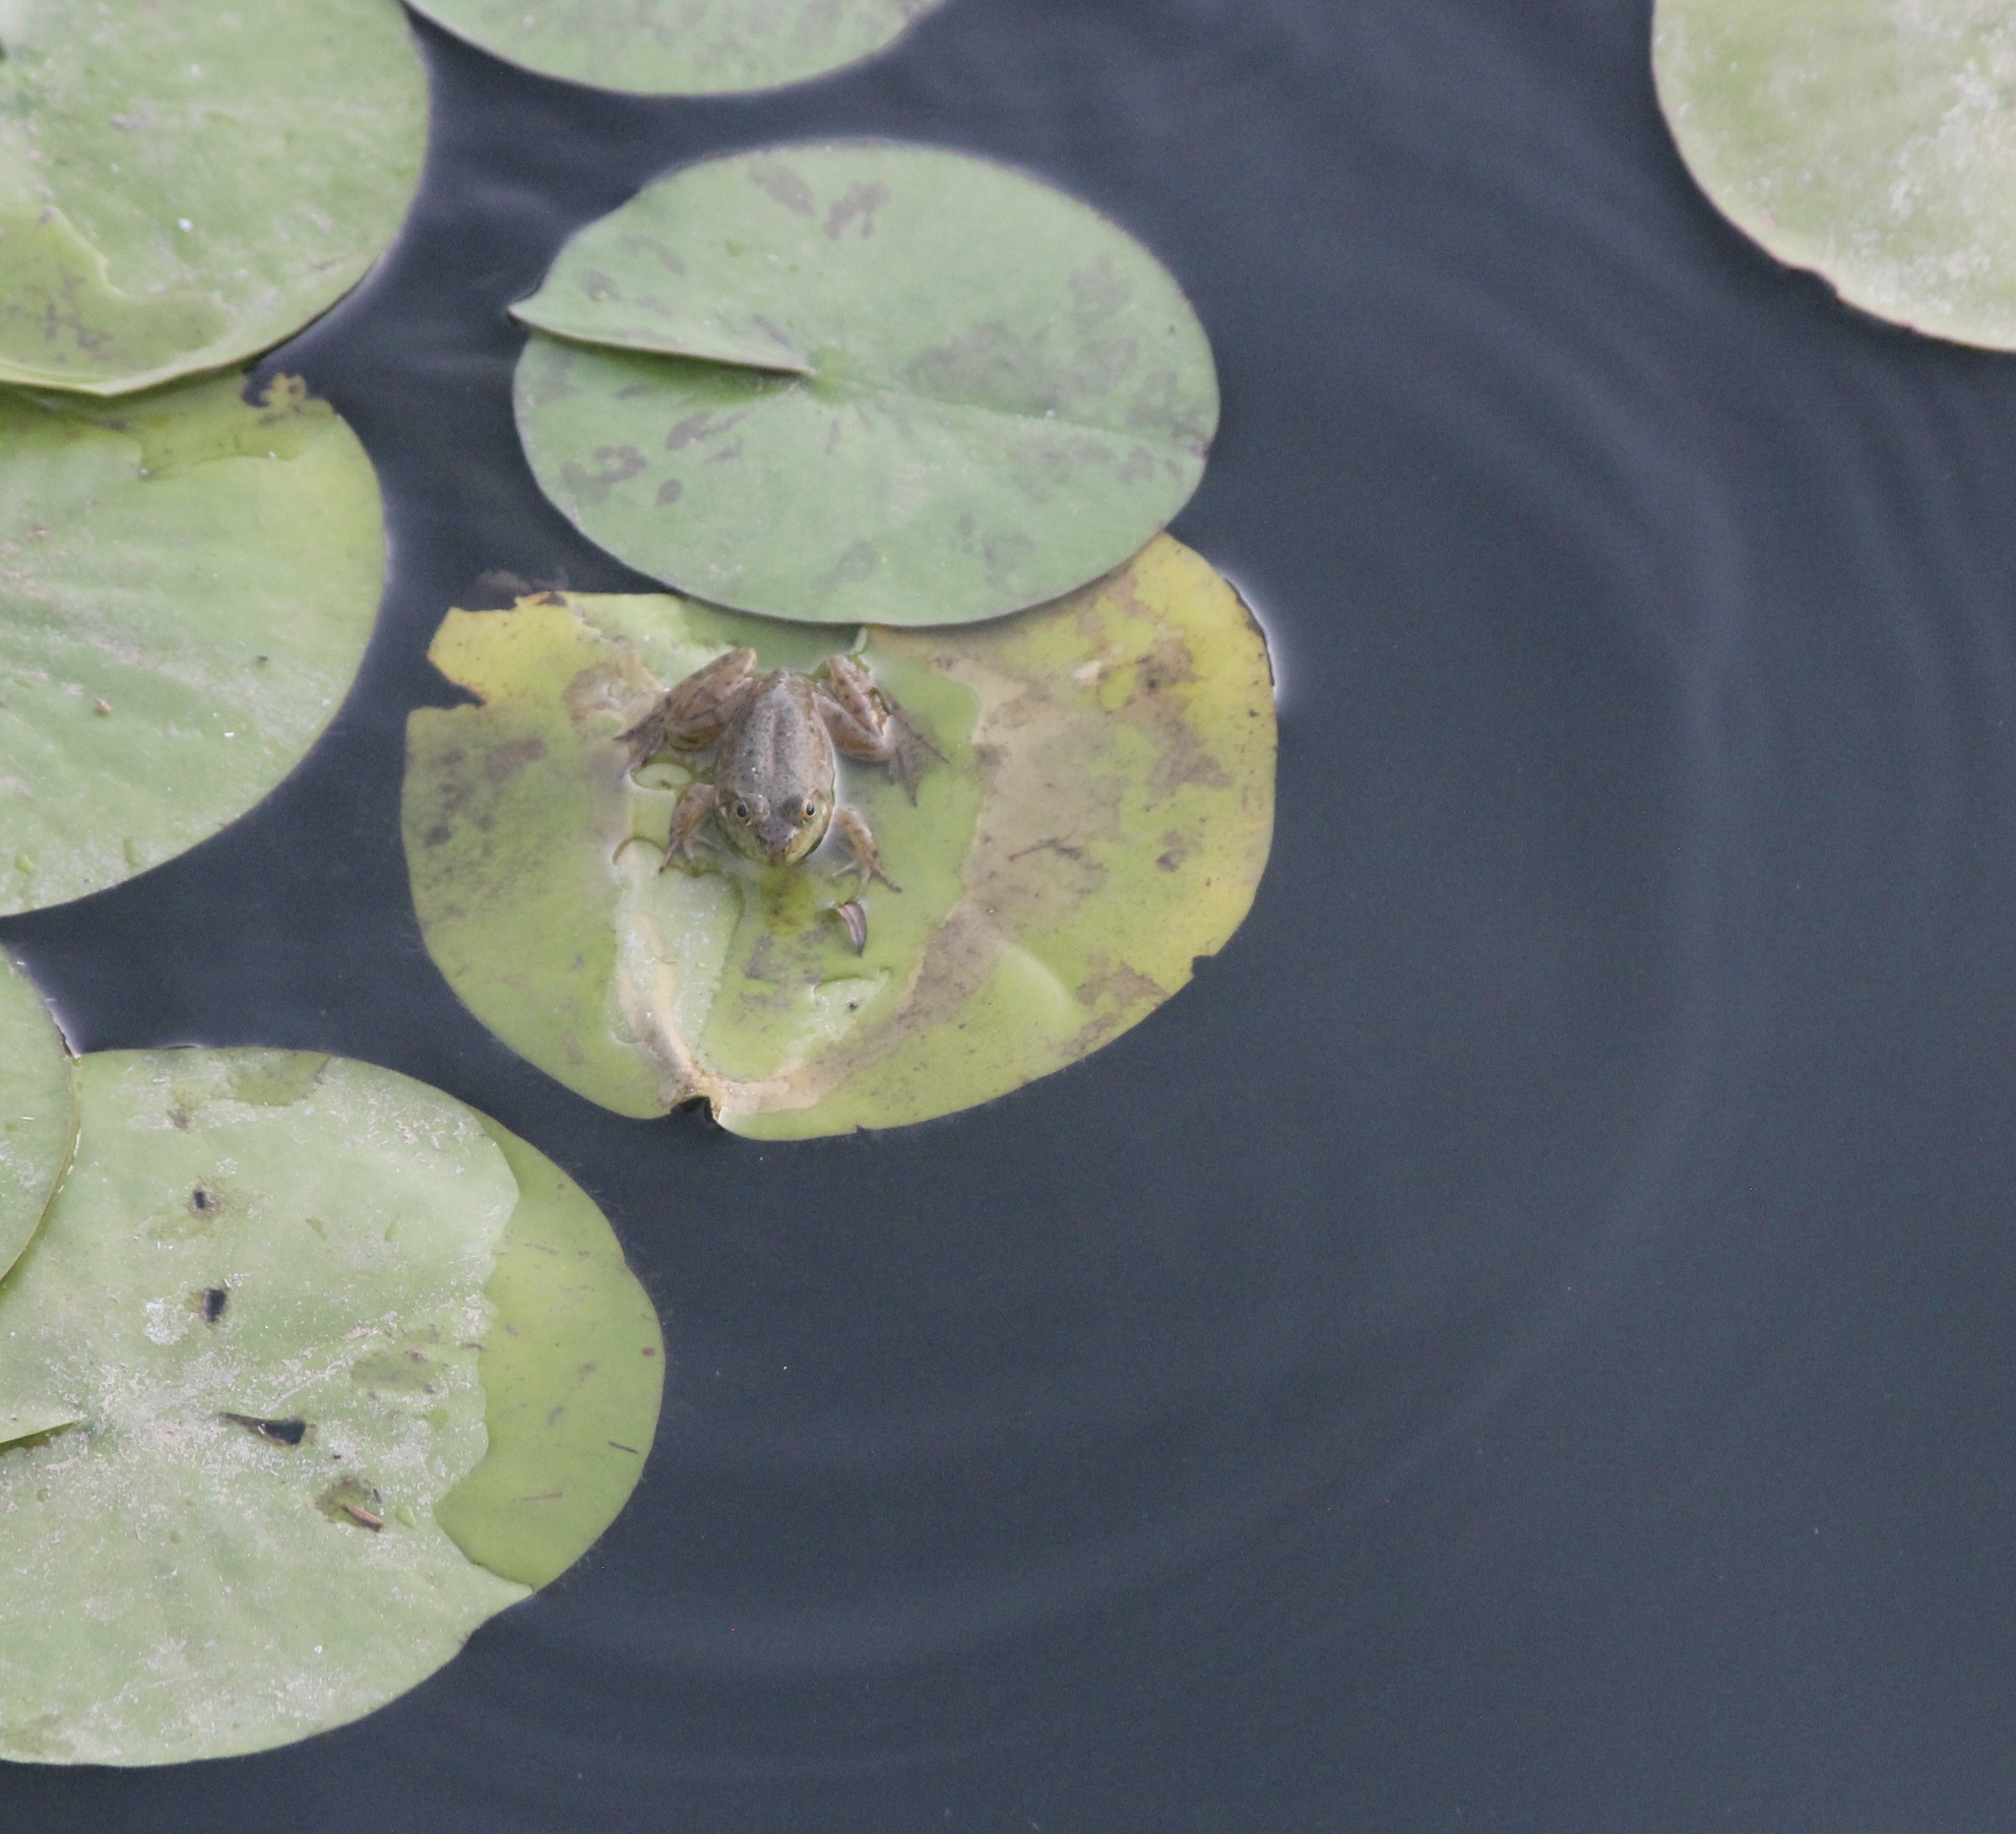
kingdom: Animalia
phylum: Chordata
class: Amphibia
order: Anura
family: Ranidae
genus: Lithobates
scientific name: Lithobates catesbeianus
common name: American bullfrog
